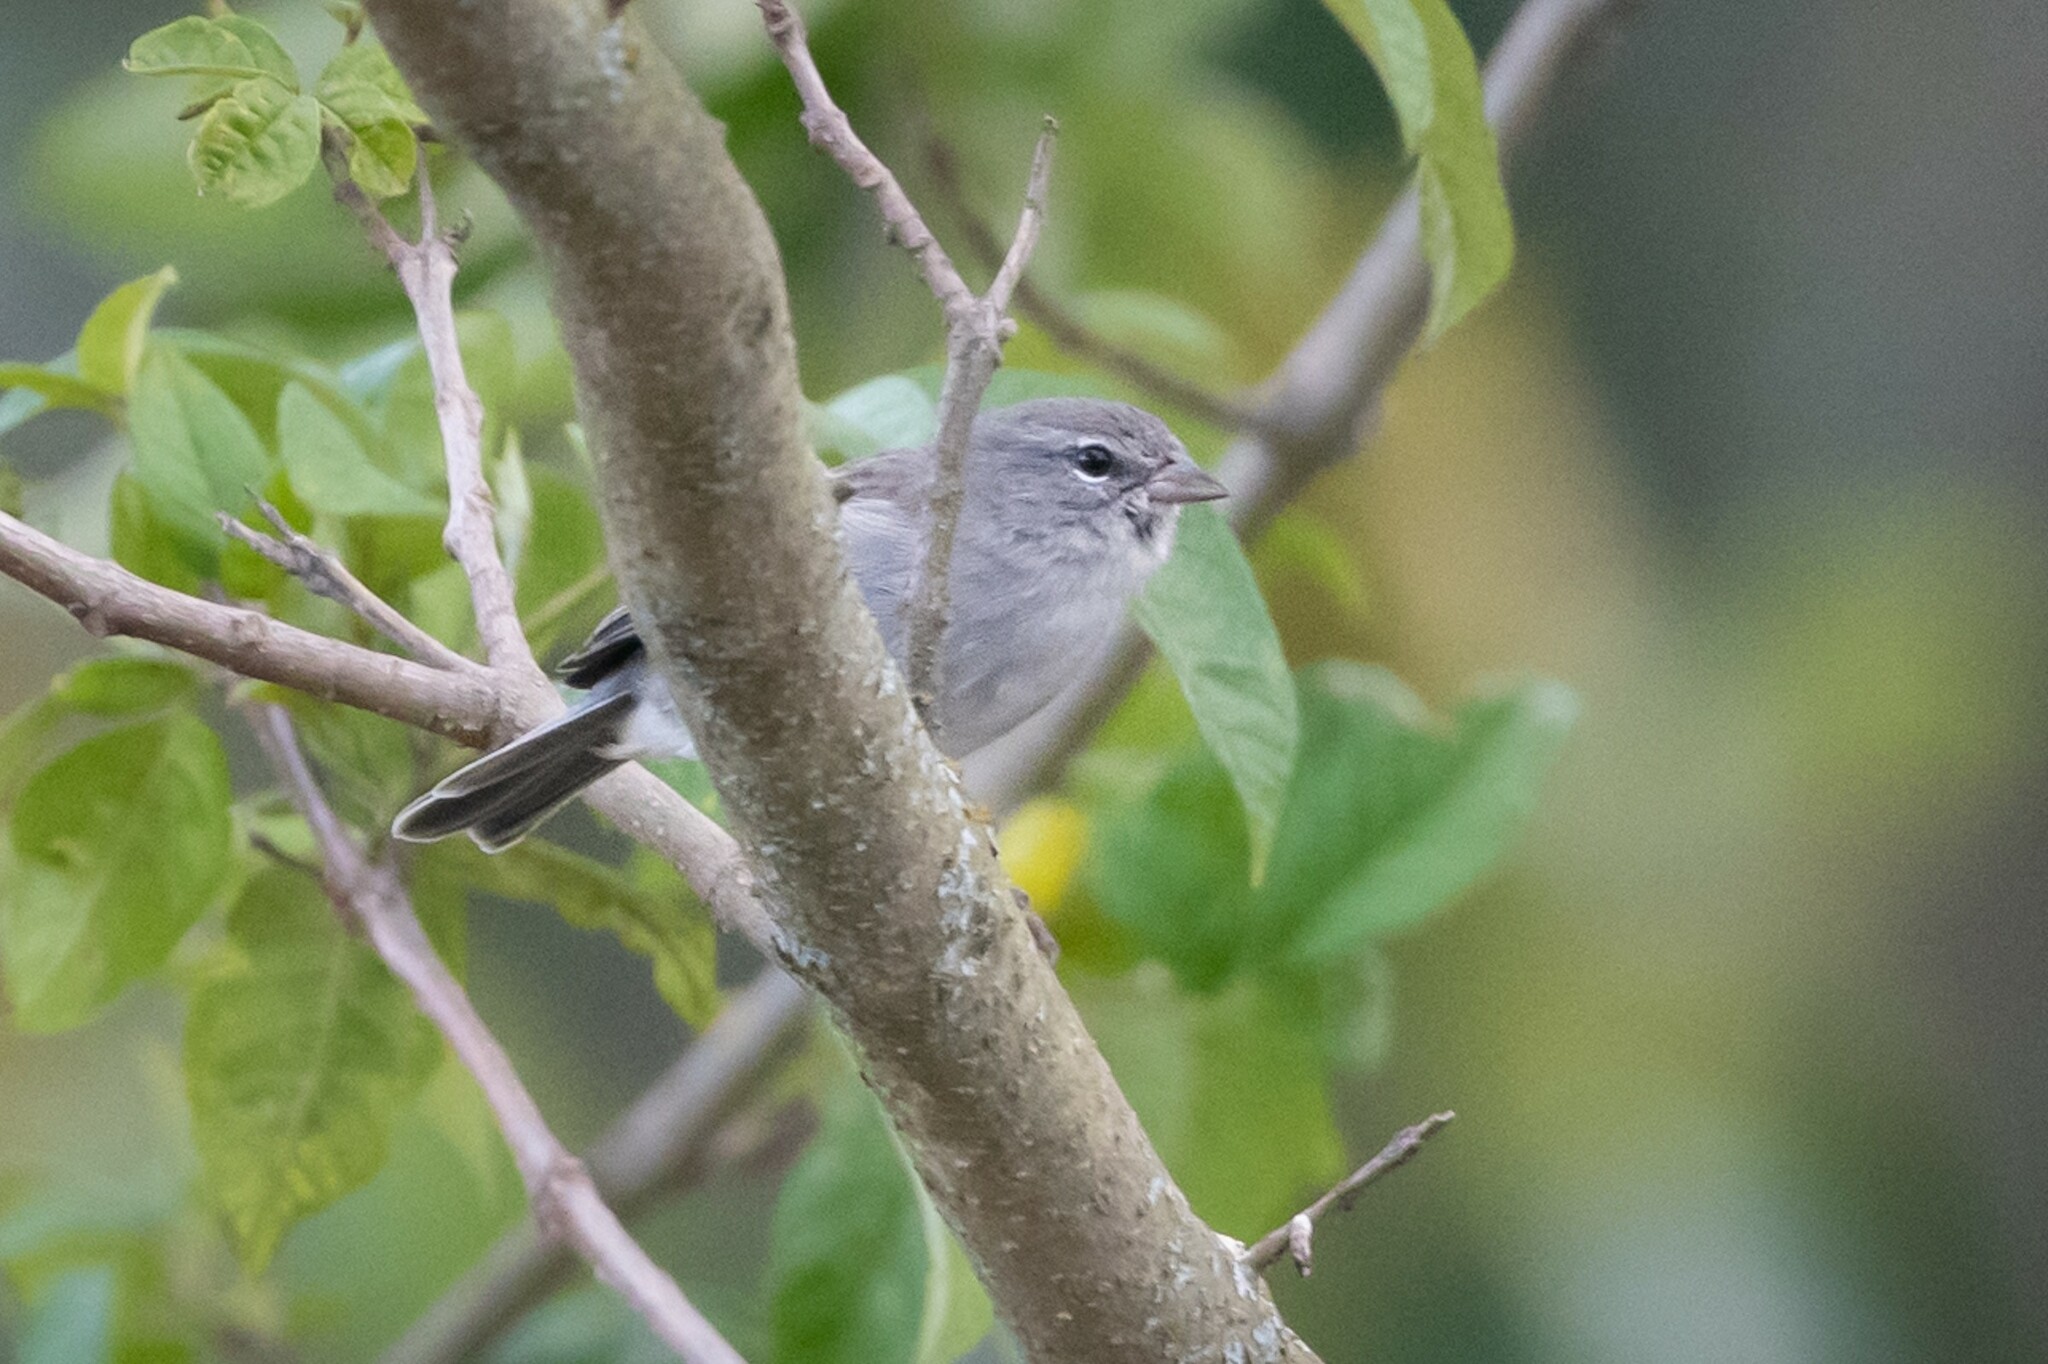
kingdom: Animalia
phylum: Chordata
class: Aves
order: Passeriformes
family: Thraupidae
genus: Geospizopsis
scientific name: Geospizopsis plebejus
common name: Ash-breasted sierra-finch
